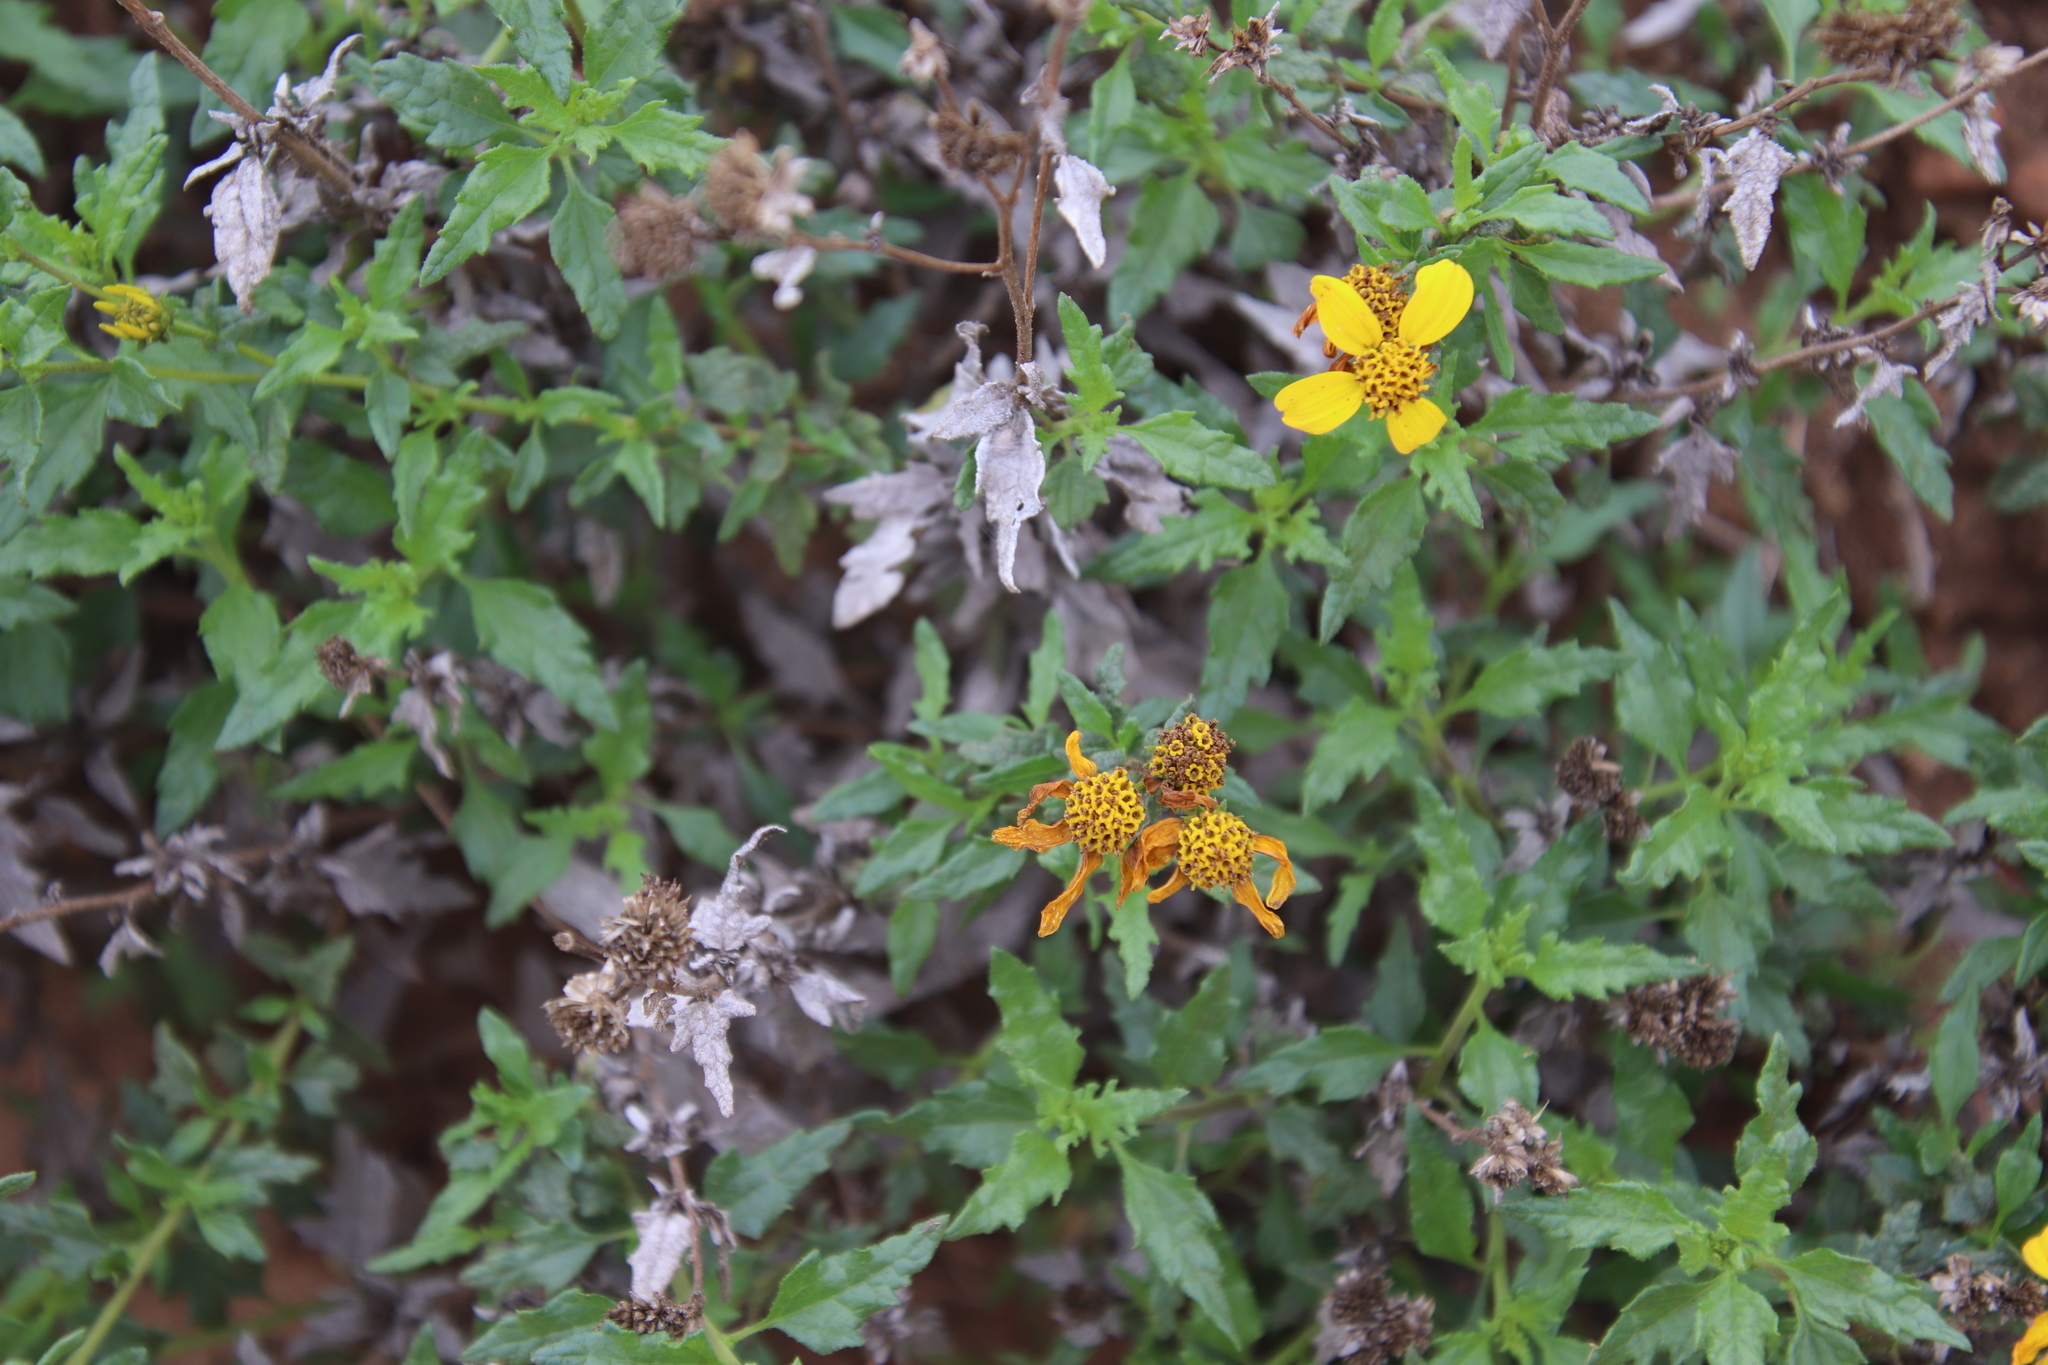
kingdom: Plantae
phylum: Tracheophyta
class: Magnoliopsida
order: Asterales
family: Asteraceae
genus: Bahiopsis
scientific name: Bahiopsis laciniata
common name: San diego county viguiera
